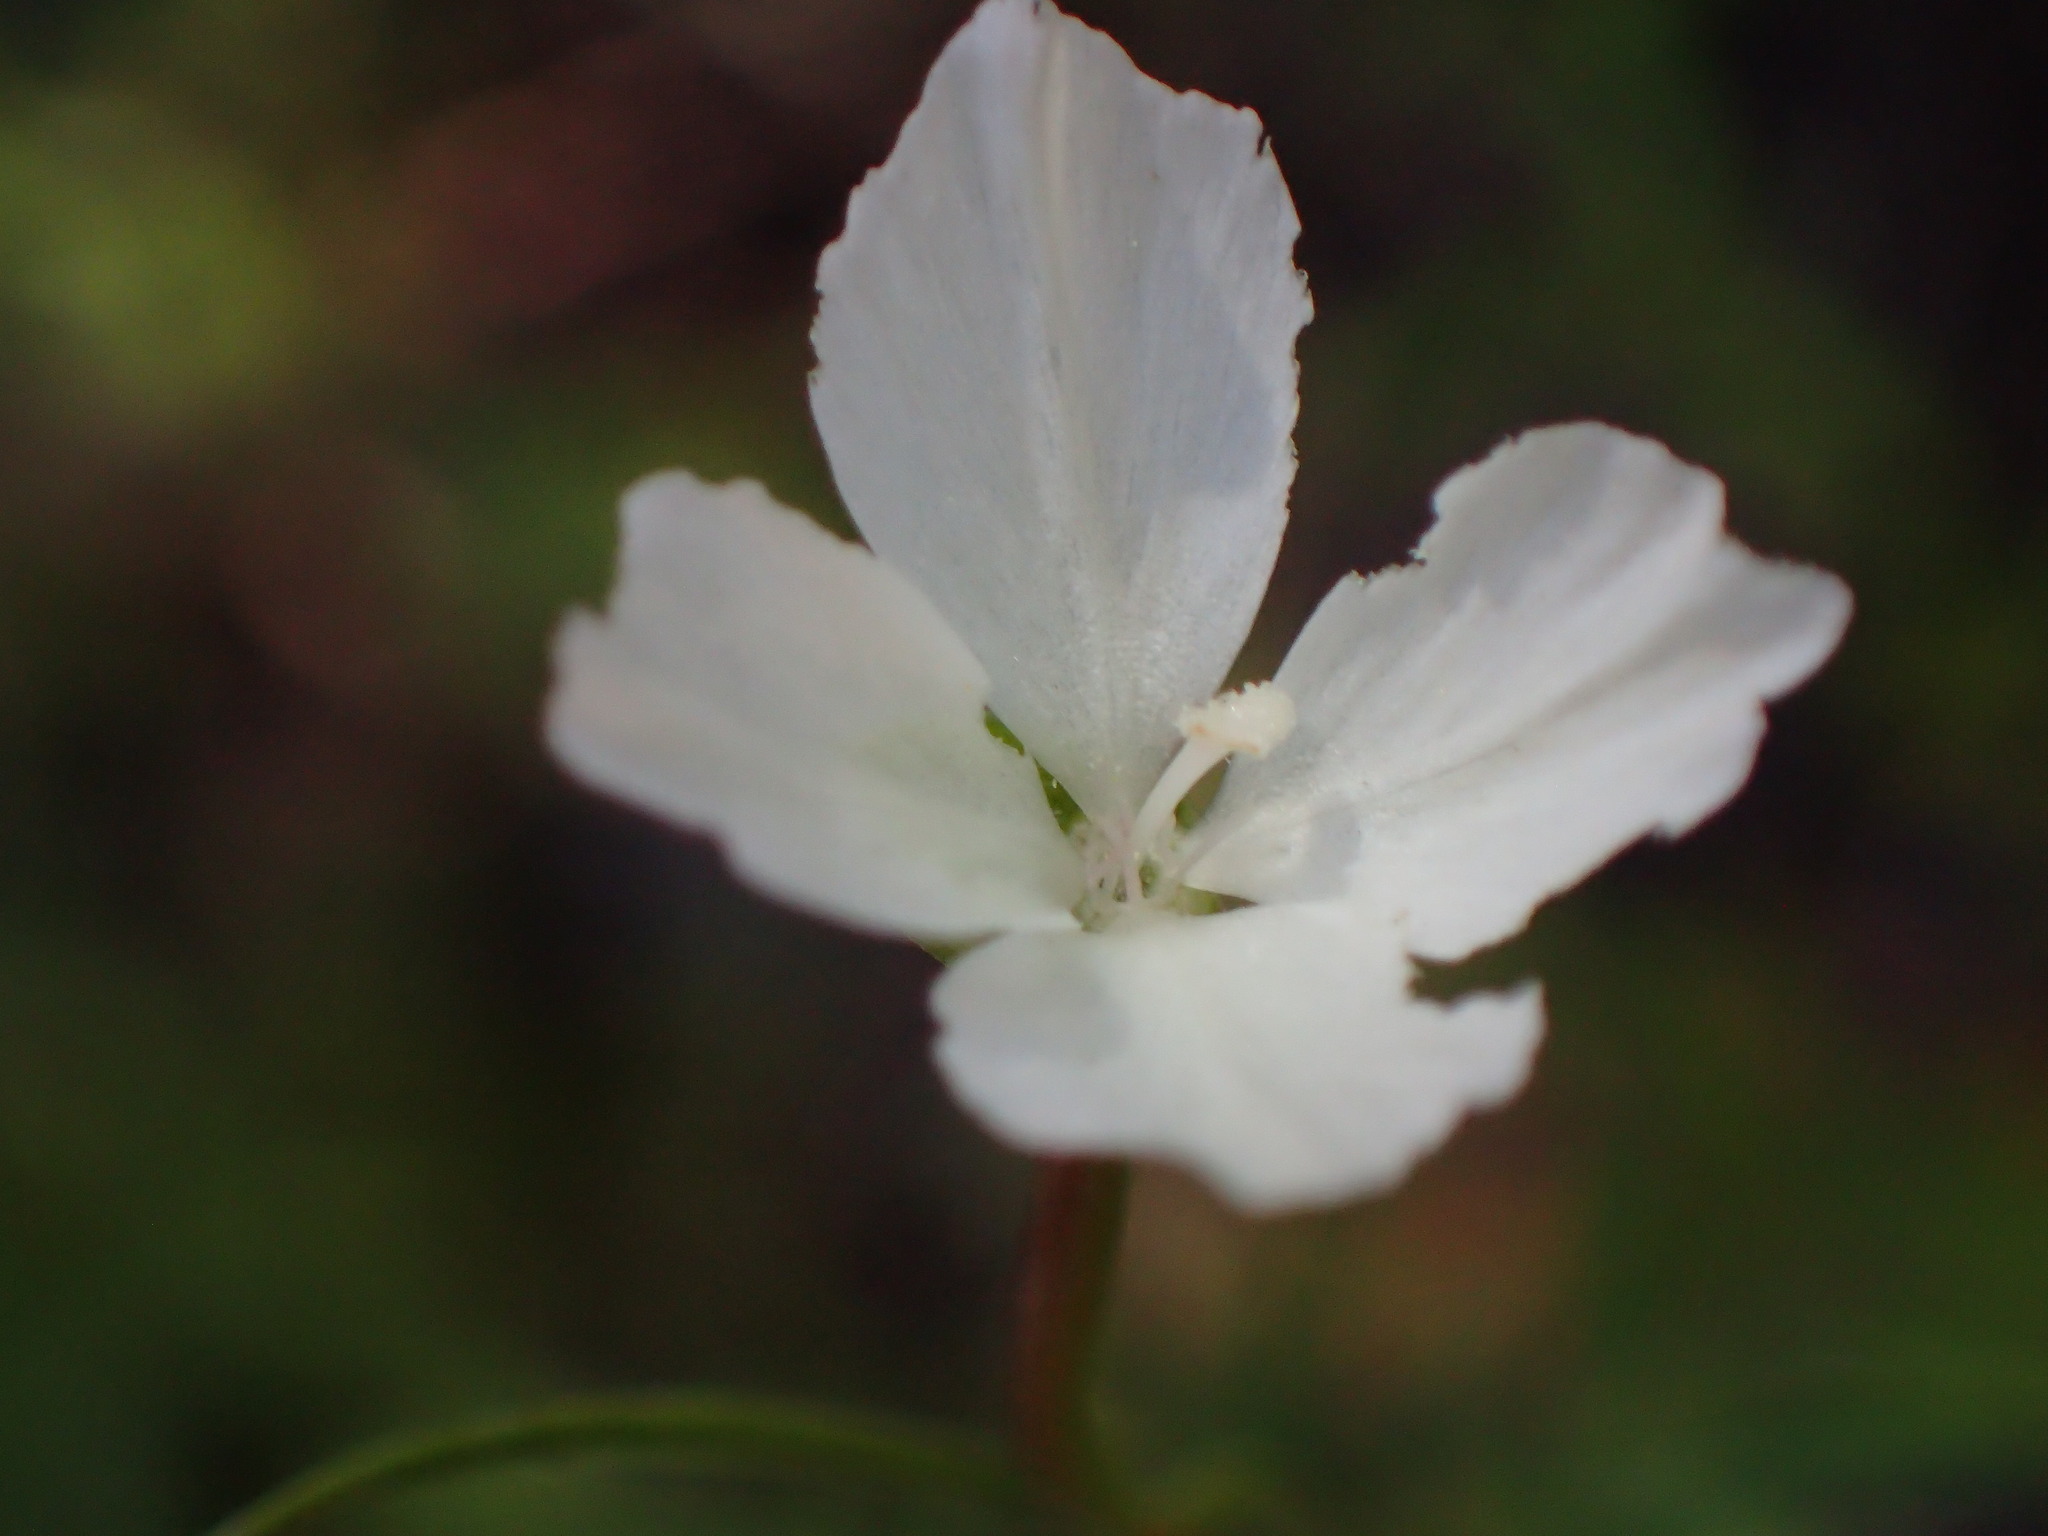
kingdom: Plantae
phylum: Tracheophyta
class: Magnoliopsida
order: Myrtales
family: Onagraceae
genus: Clarkia
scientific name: Clarkia epilobioides
